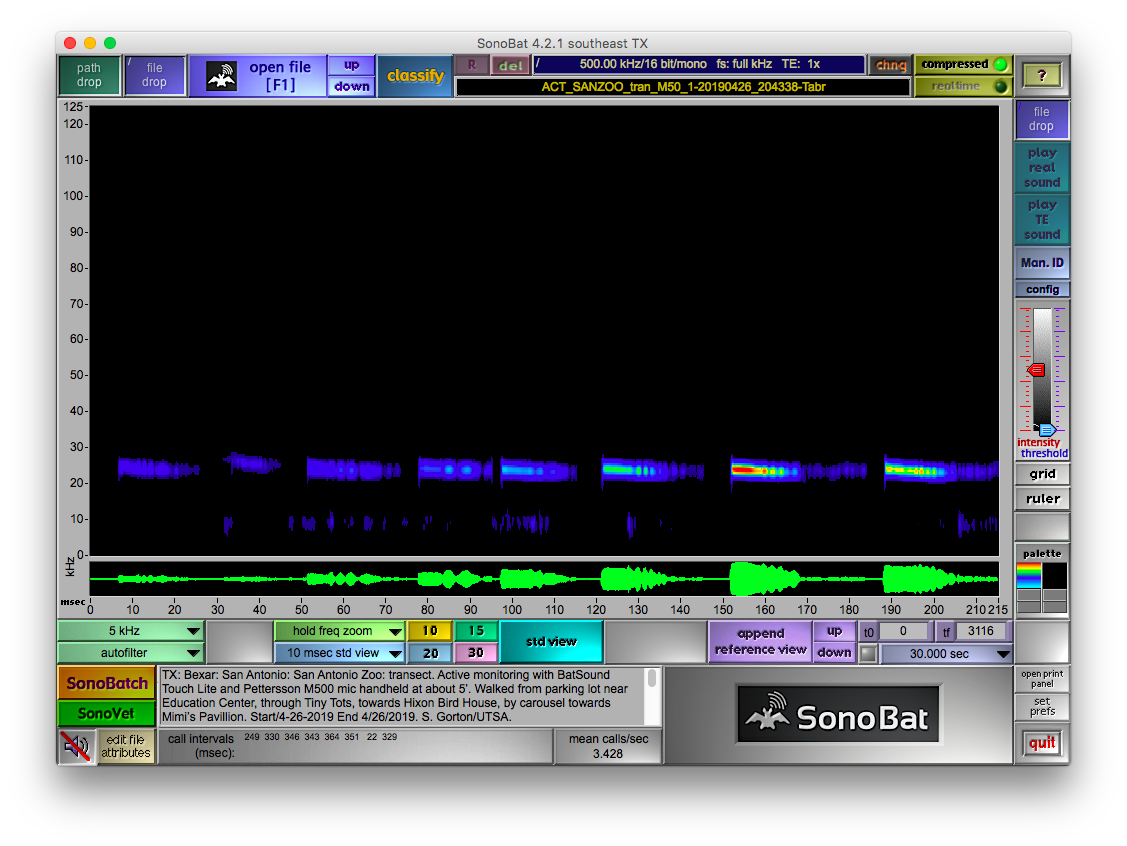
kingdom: Animalia
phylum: Chordata
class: Mammalia
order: Chiroptera
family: Molossidae
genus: Tadarida
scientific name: Tadarida brasiliensis
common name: Mexican free-tailed bat
